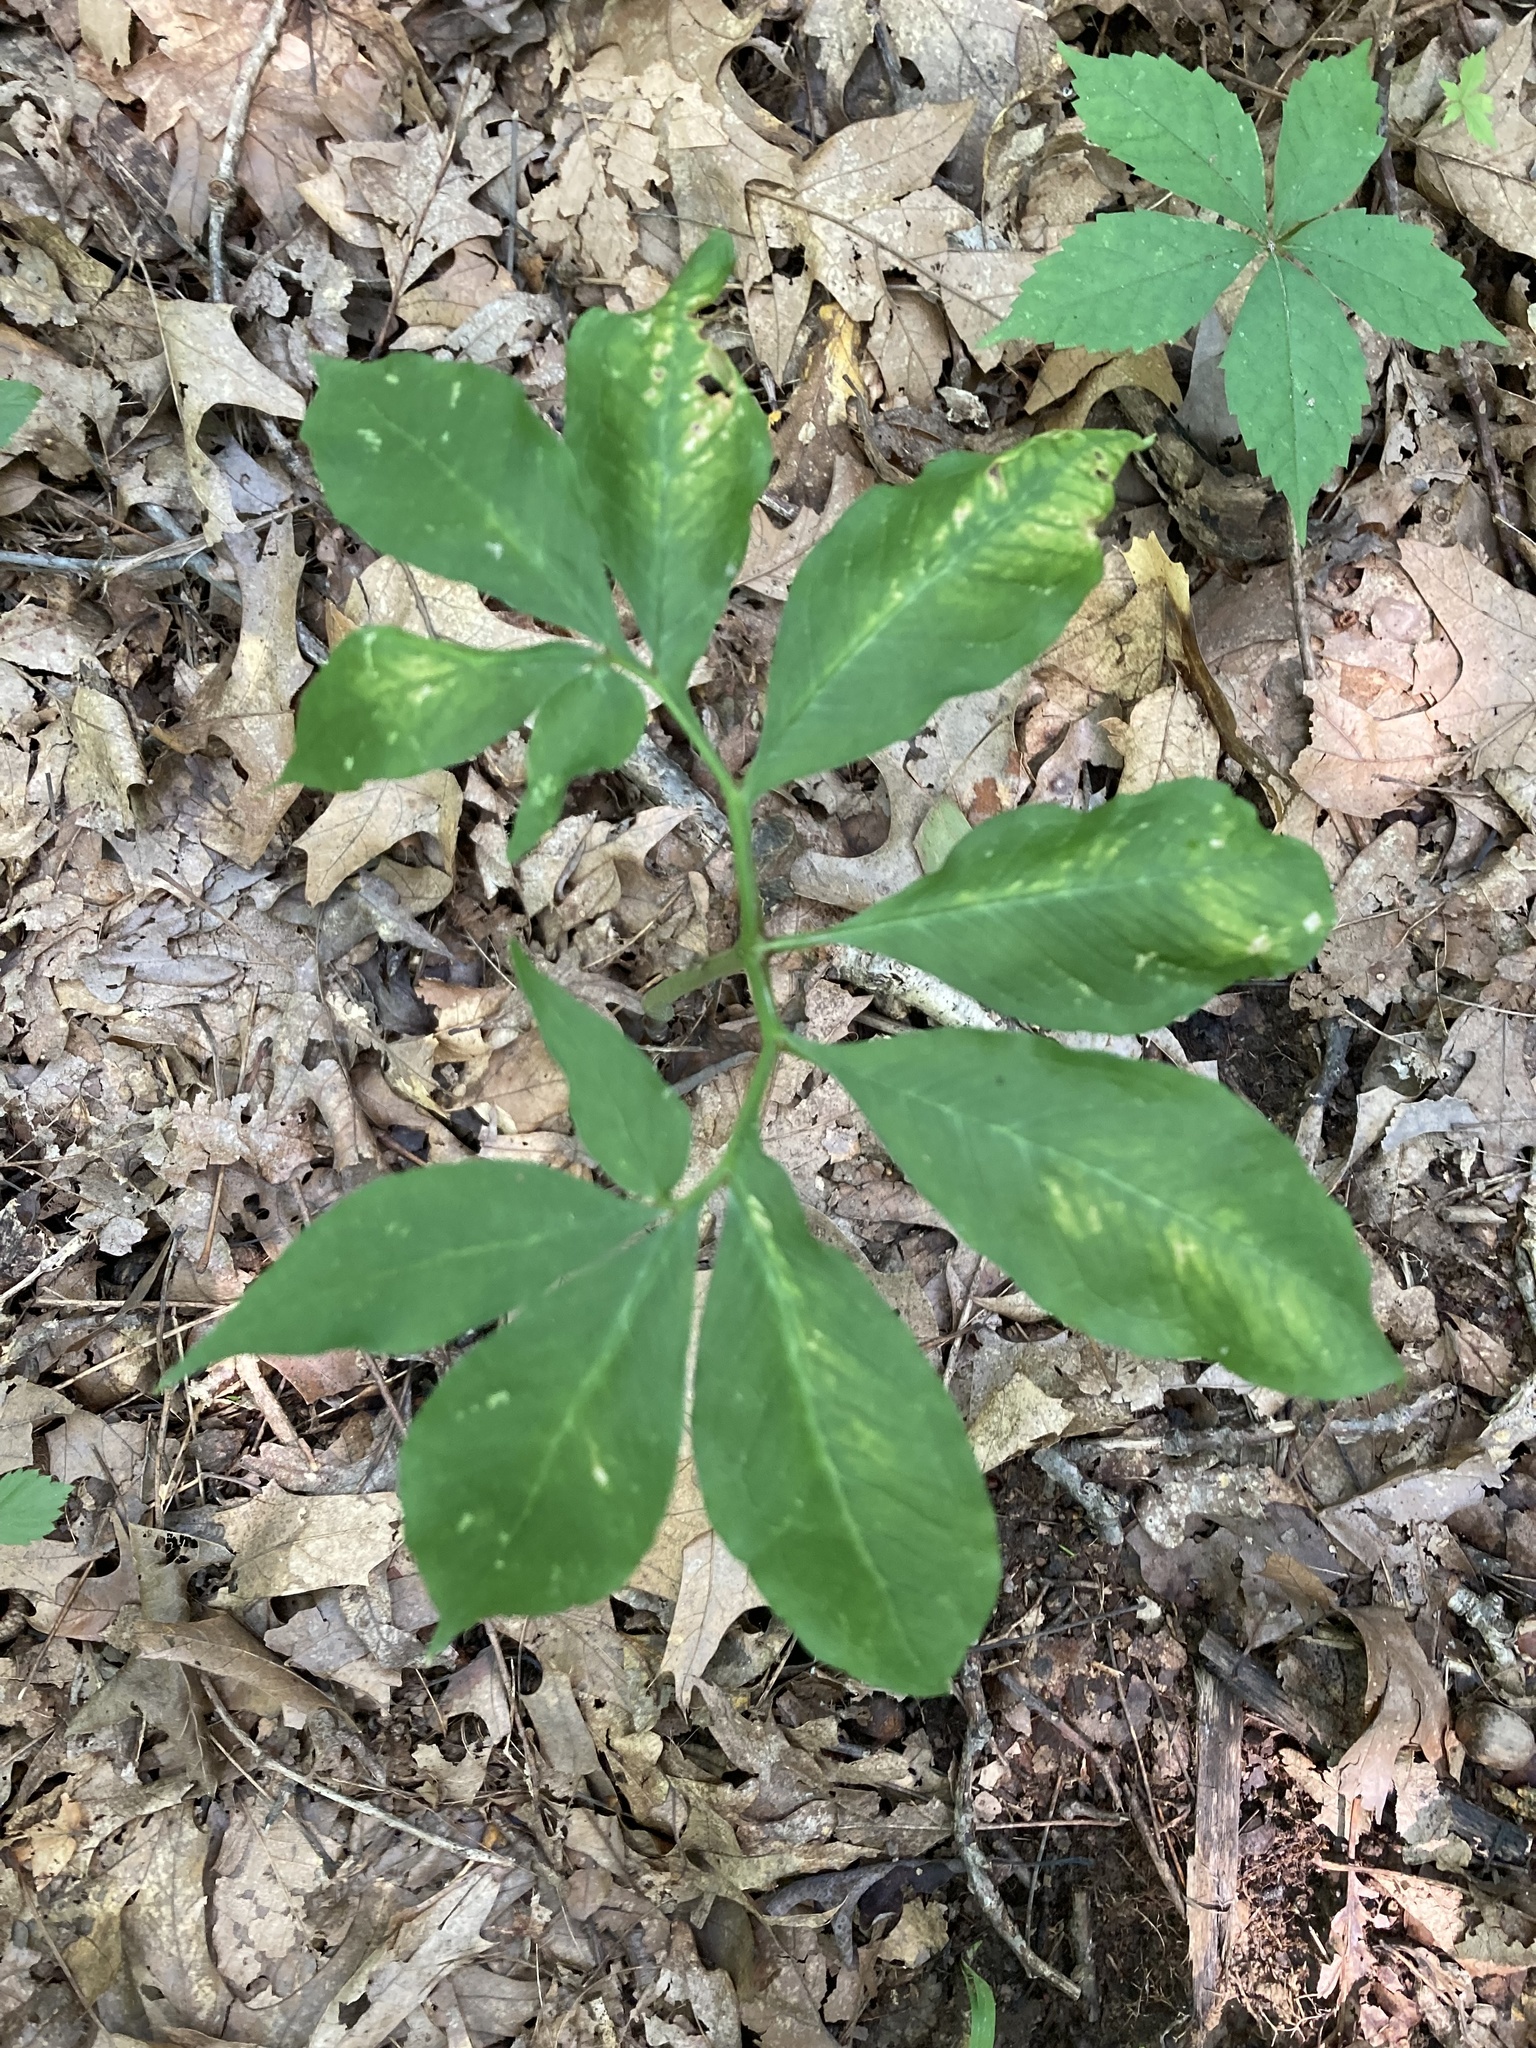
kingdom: Plantae
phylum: Tracheophyta
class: Liliopsida
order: Alismatales
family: Araceae
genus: Arisaema
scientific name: Arisaema dracontium
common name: Dragon-arum
